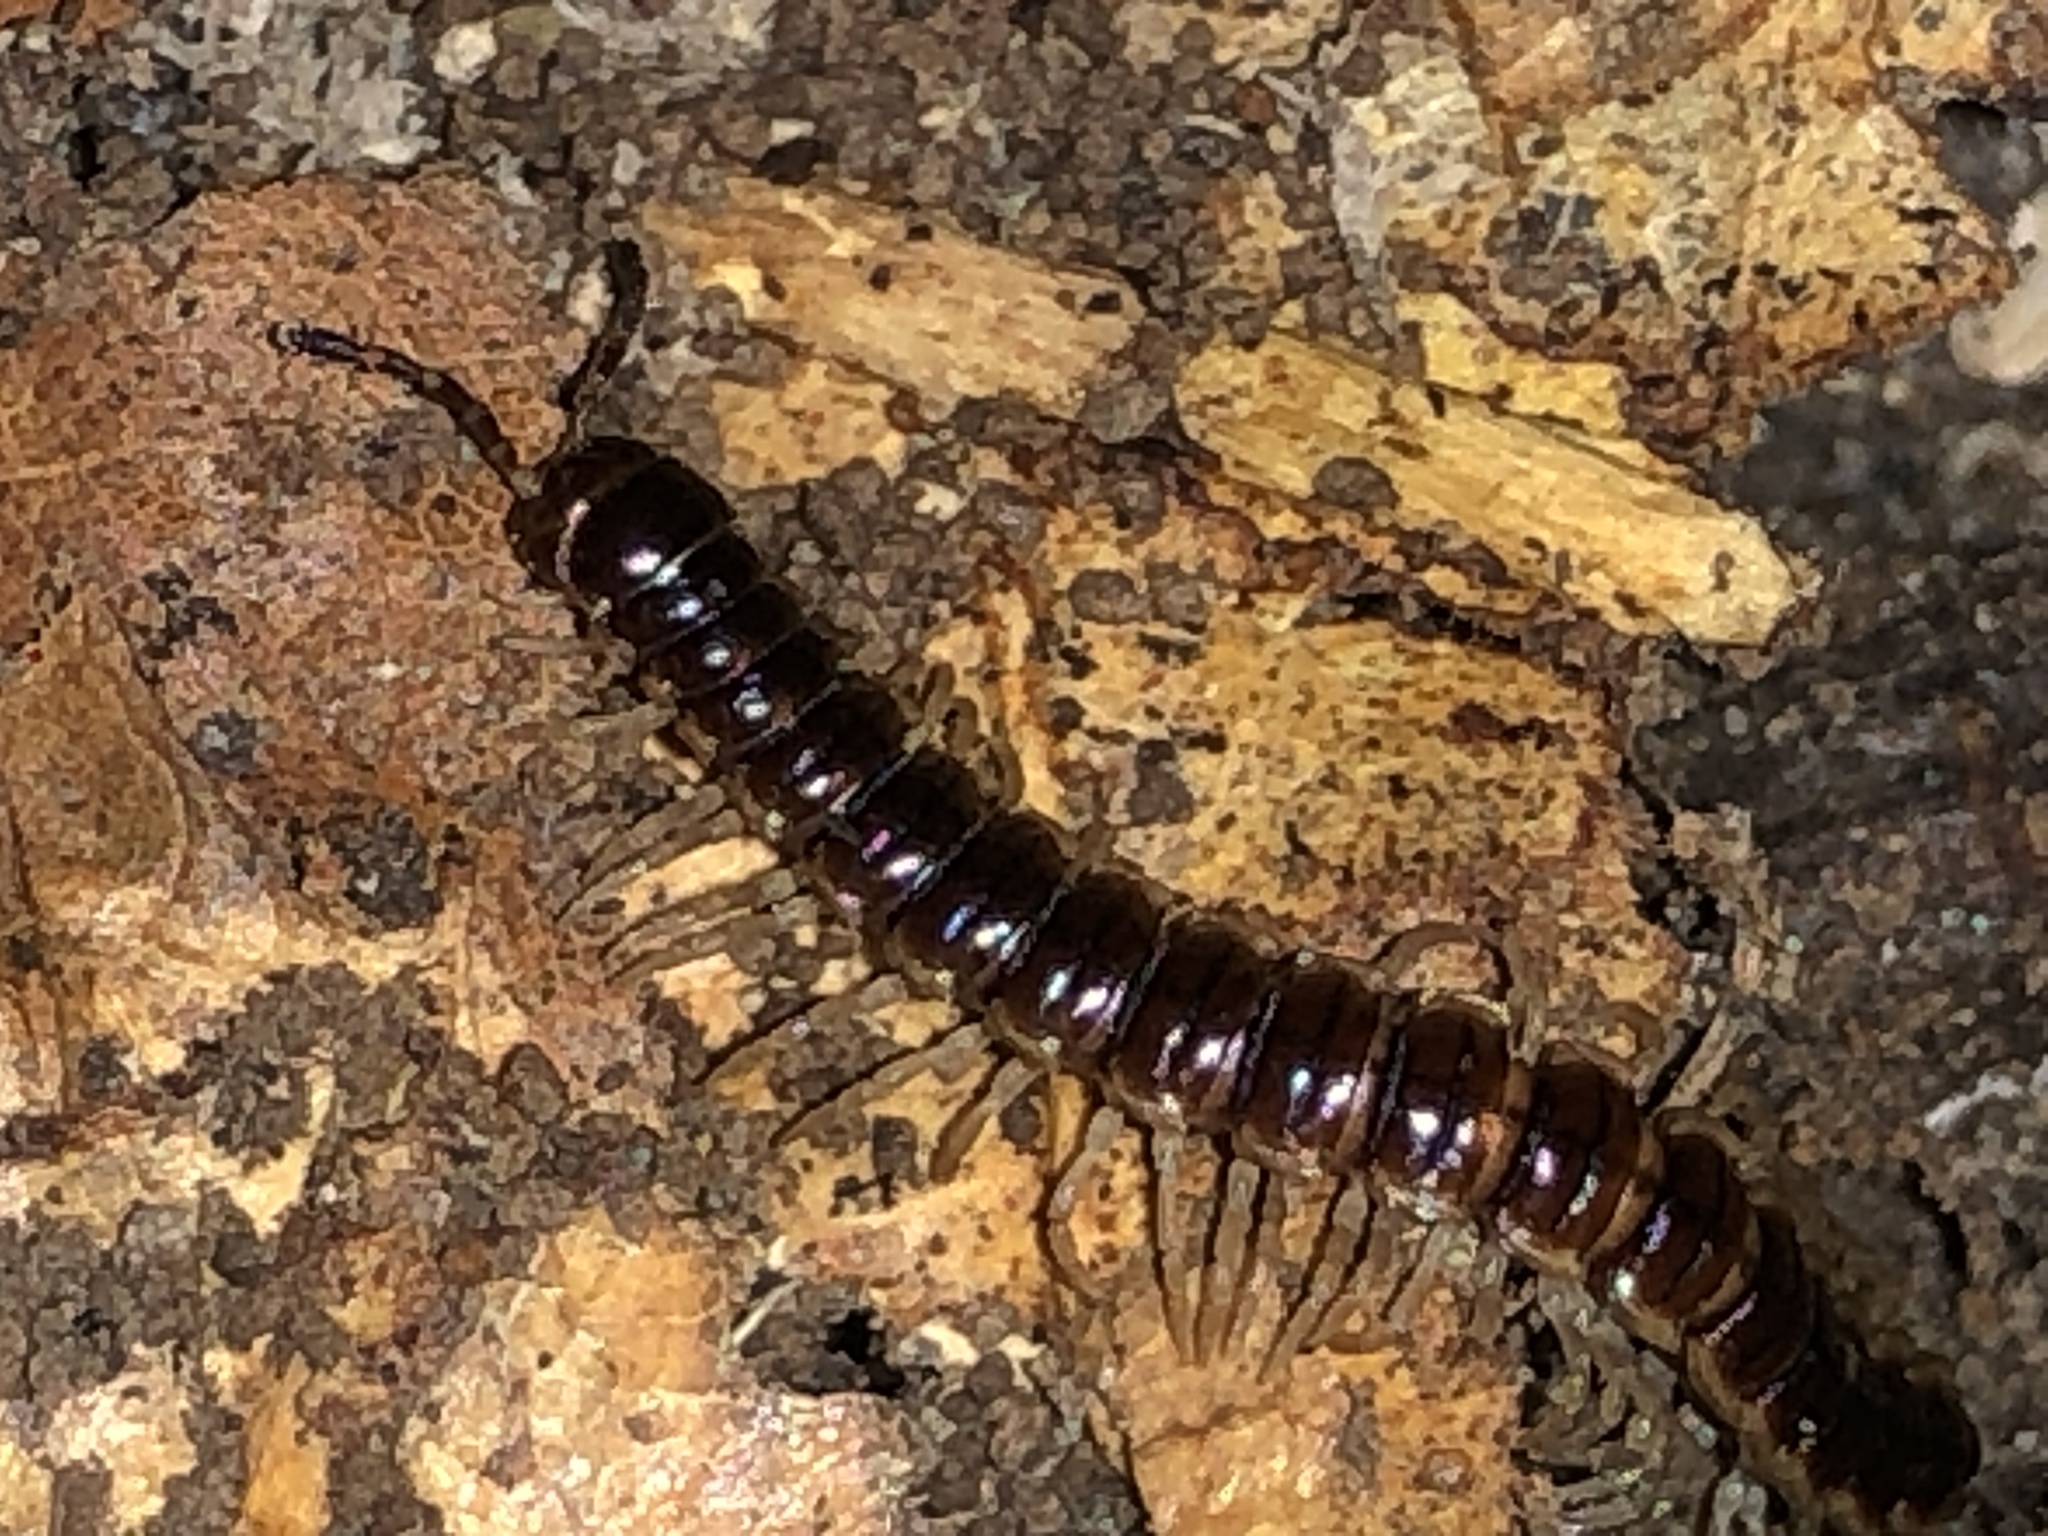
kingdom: Animalia
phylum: Arthropoda
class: Diplopoda
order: Polydesmida
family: Paradoxosomatidae
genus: Oxidus
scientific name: Oxidus gracilis
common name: Greenhouse millipede
